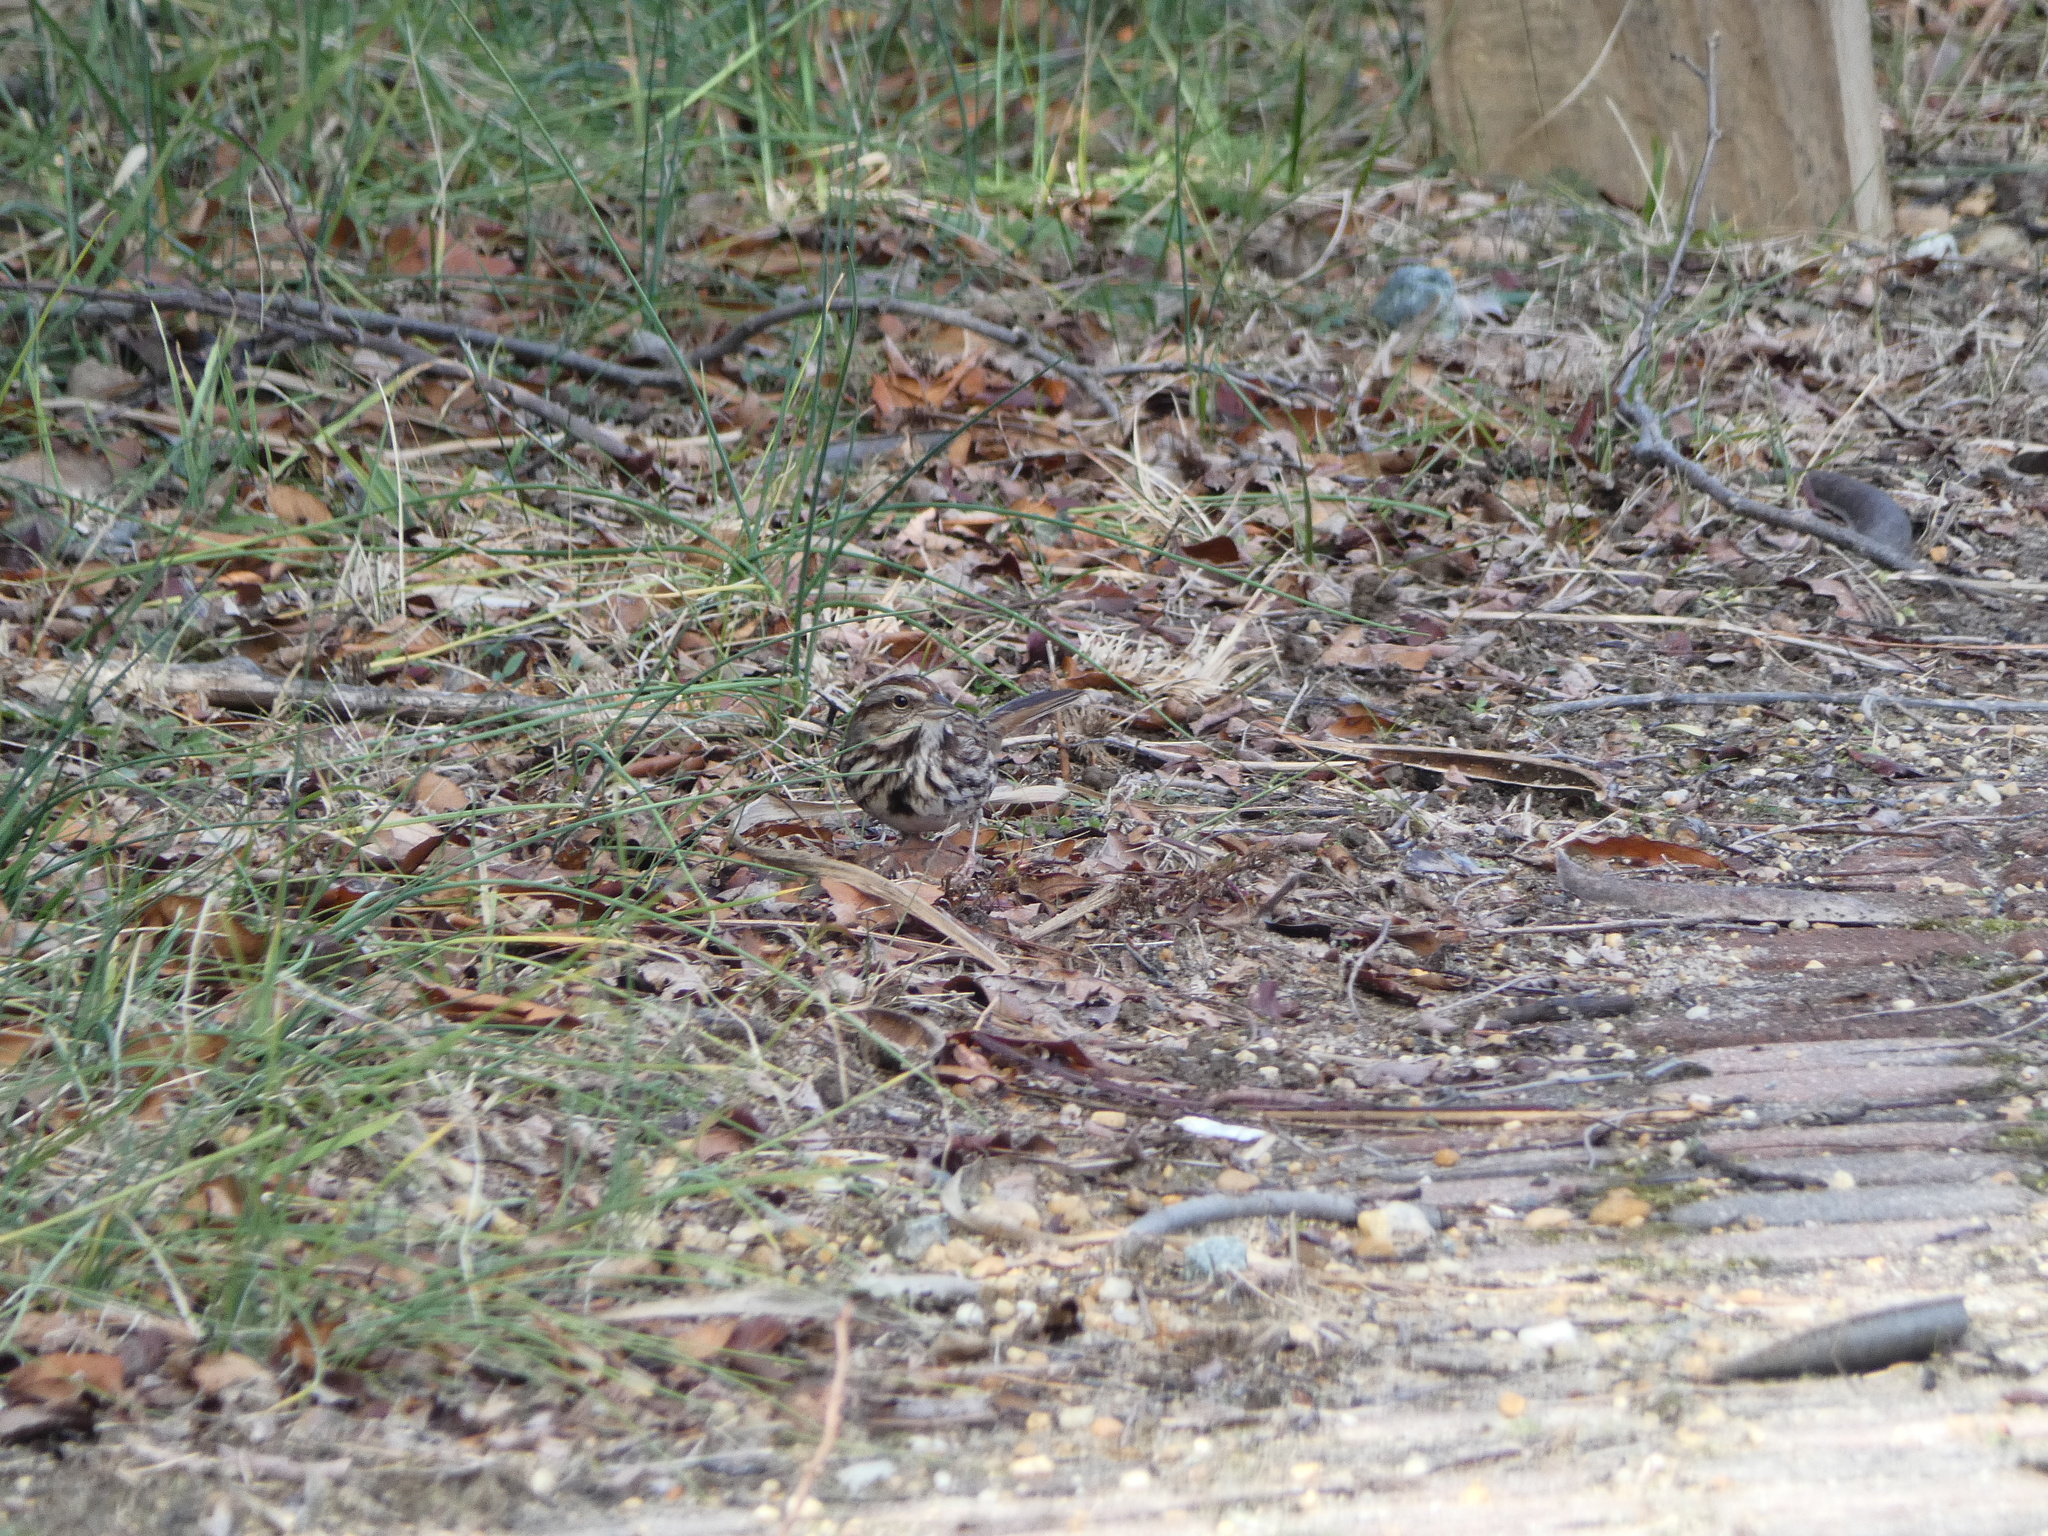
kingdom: Animalia
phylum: Chordata
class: Aves
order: Passeriformes
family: Passerellidae
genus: Melospiza
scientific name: Melospiza melodia
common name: Song sparrow
